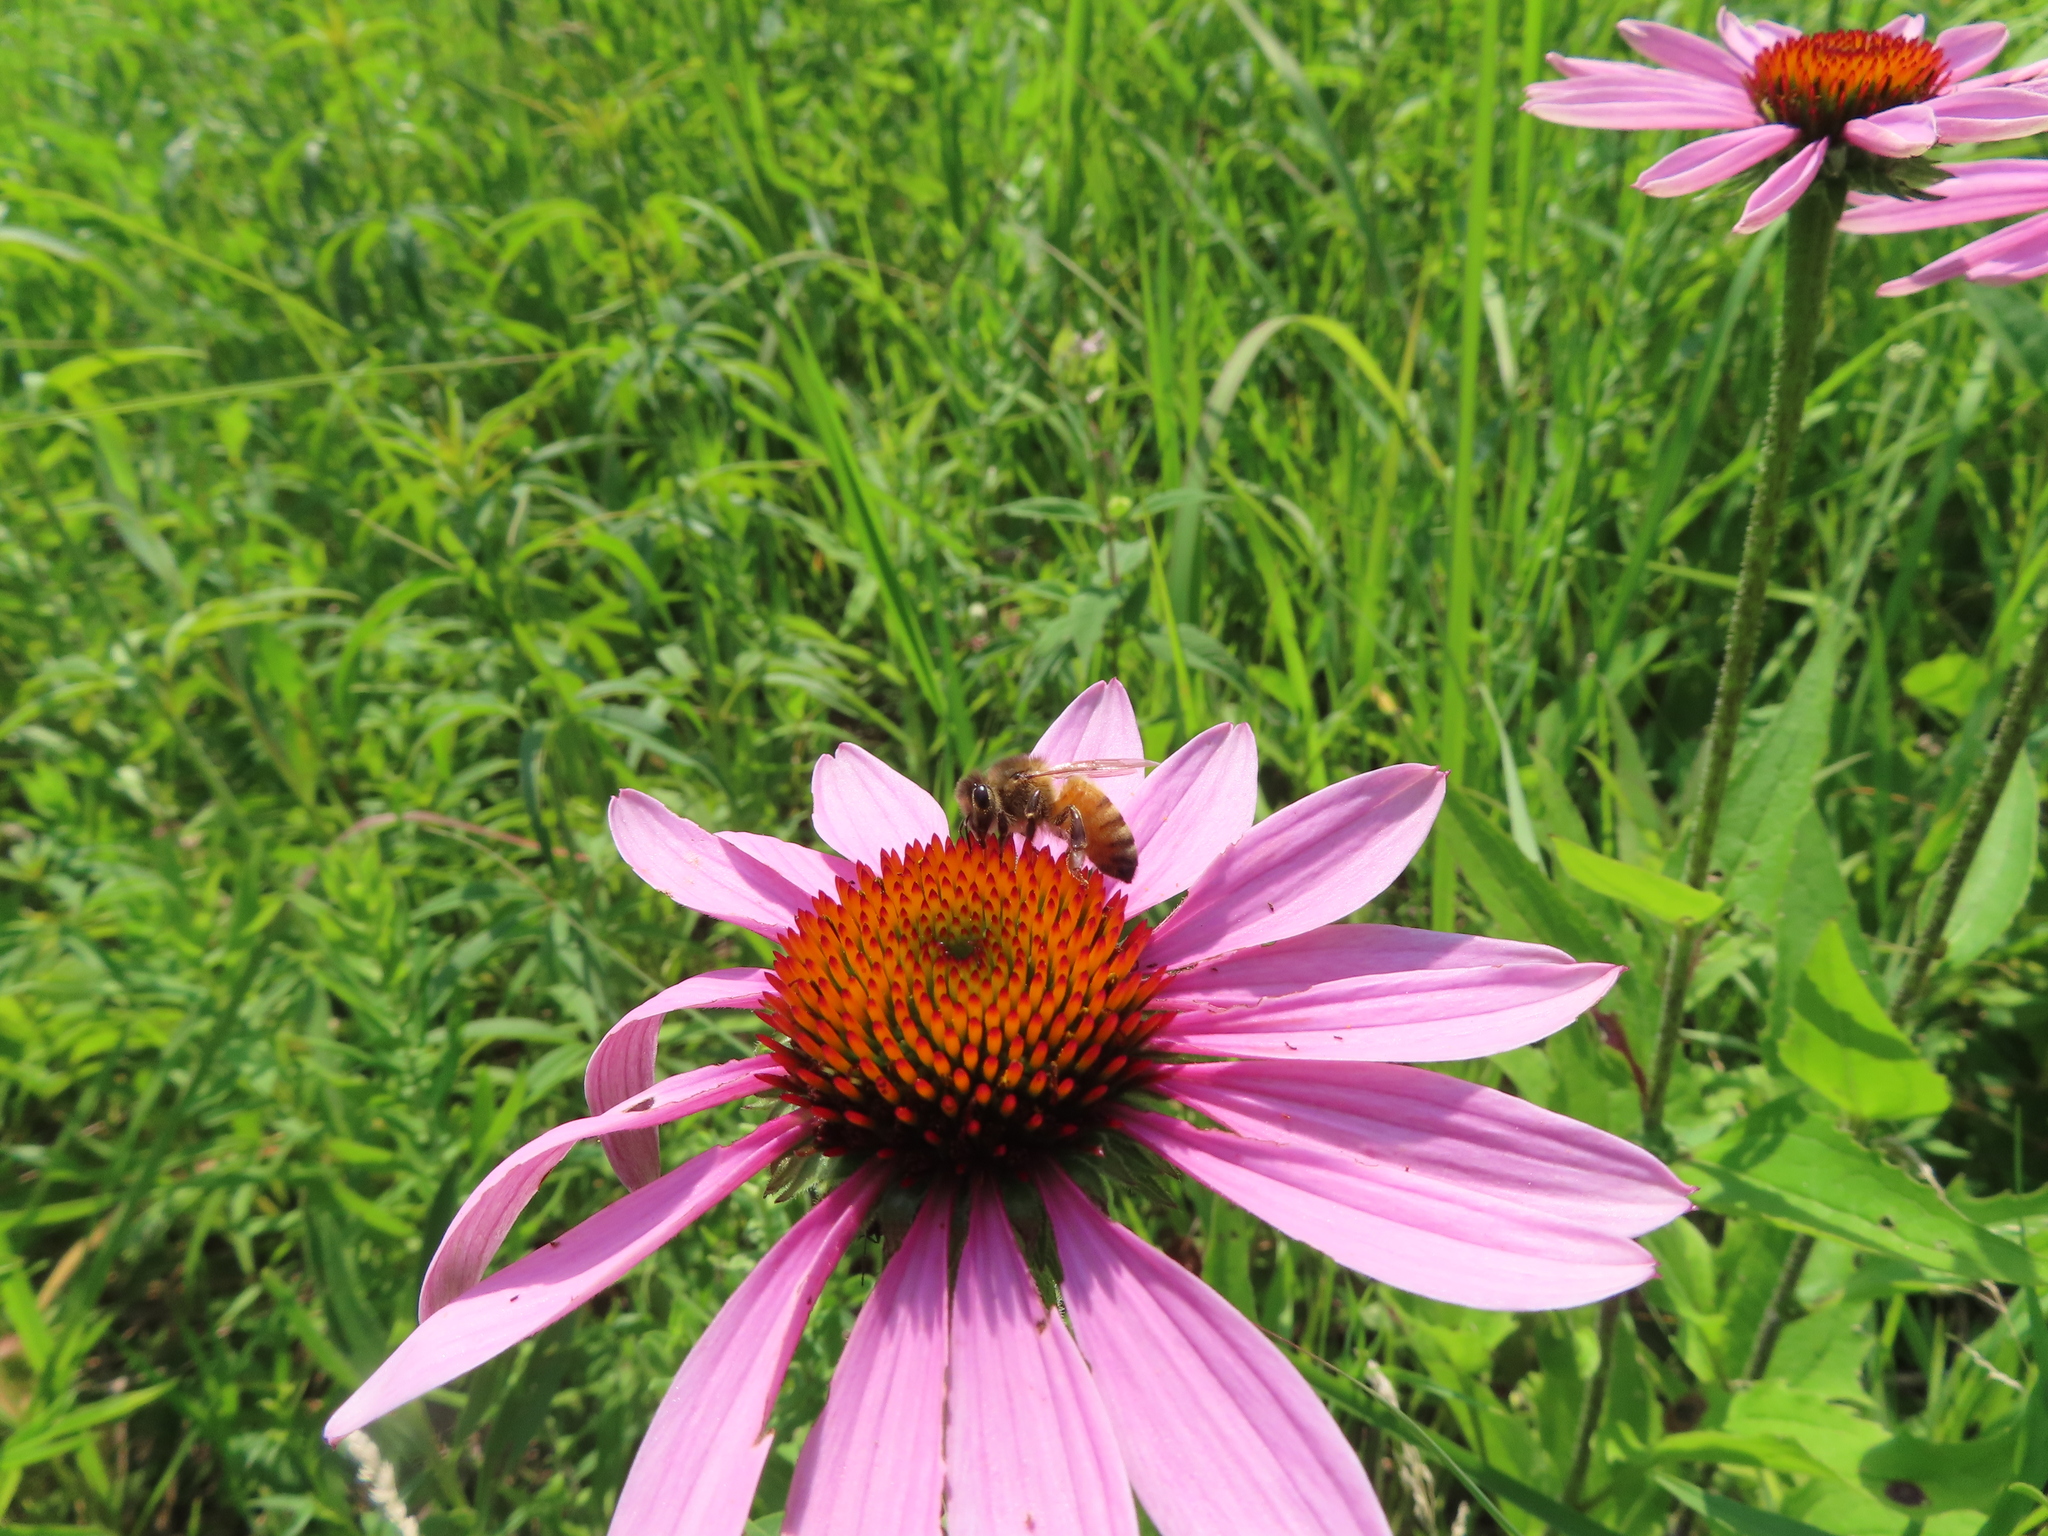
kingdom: Animalia
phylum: Arthropoda
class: Insecta
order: Hymenoptera
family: Apidae
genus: Apis
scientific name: Apis mellifera
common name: Honey bee
